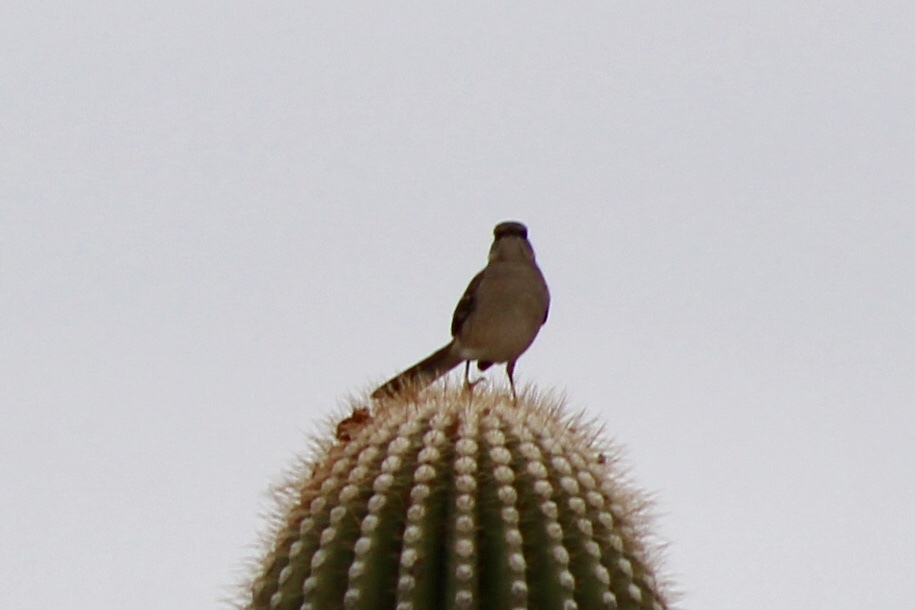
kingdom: Animalia
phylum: Chordata
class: Aves
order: Passeriformes
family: Mimidae
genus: Mimus
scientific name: Mimus polyglottos
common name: Northern mockingbird
